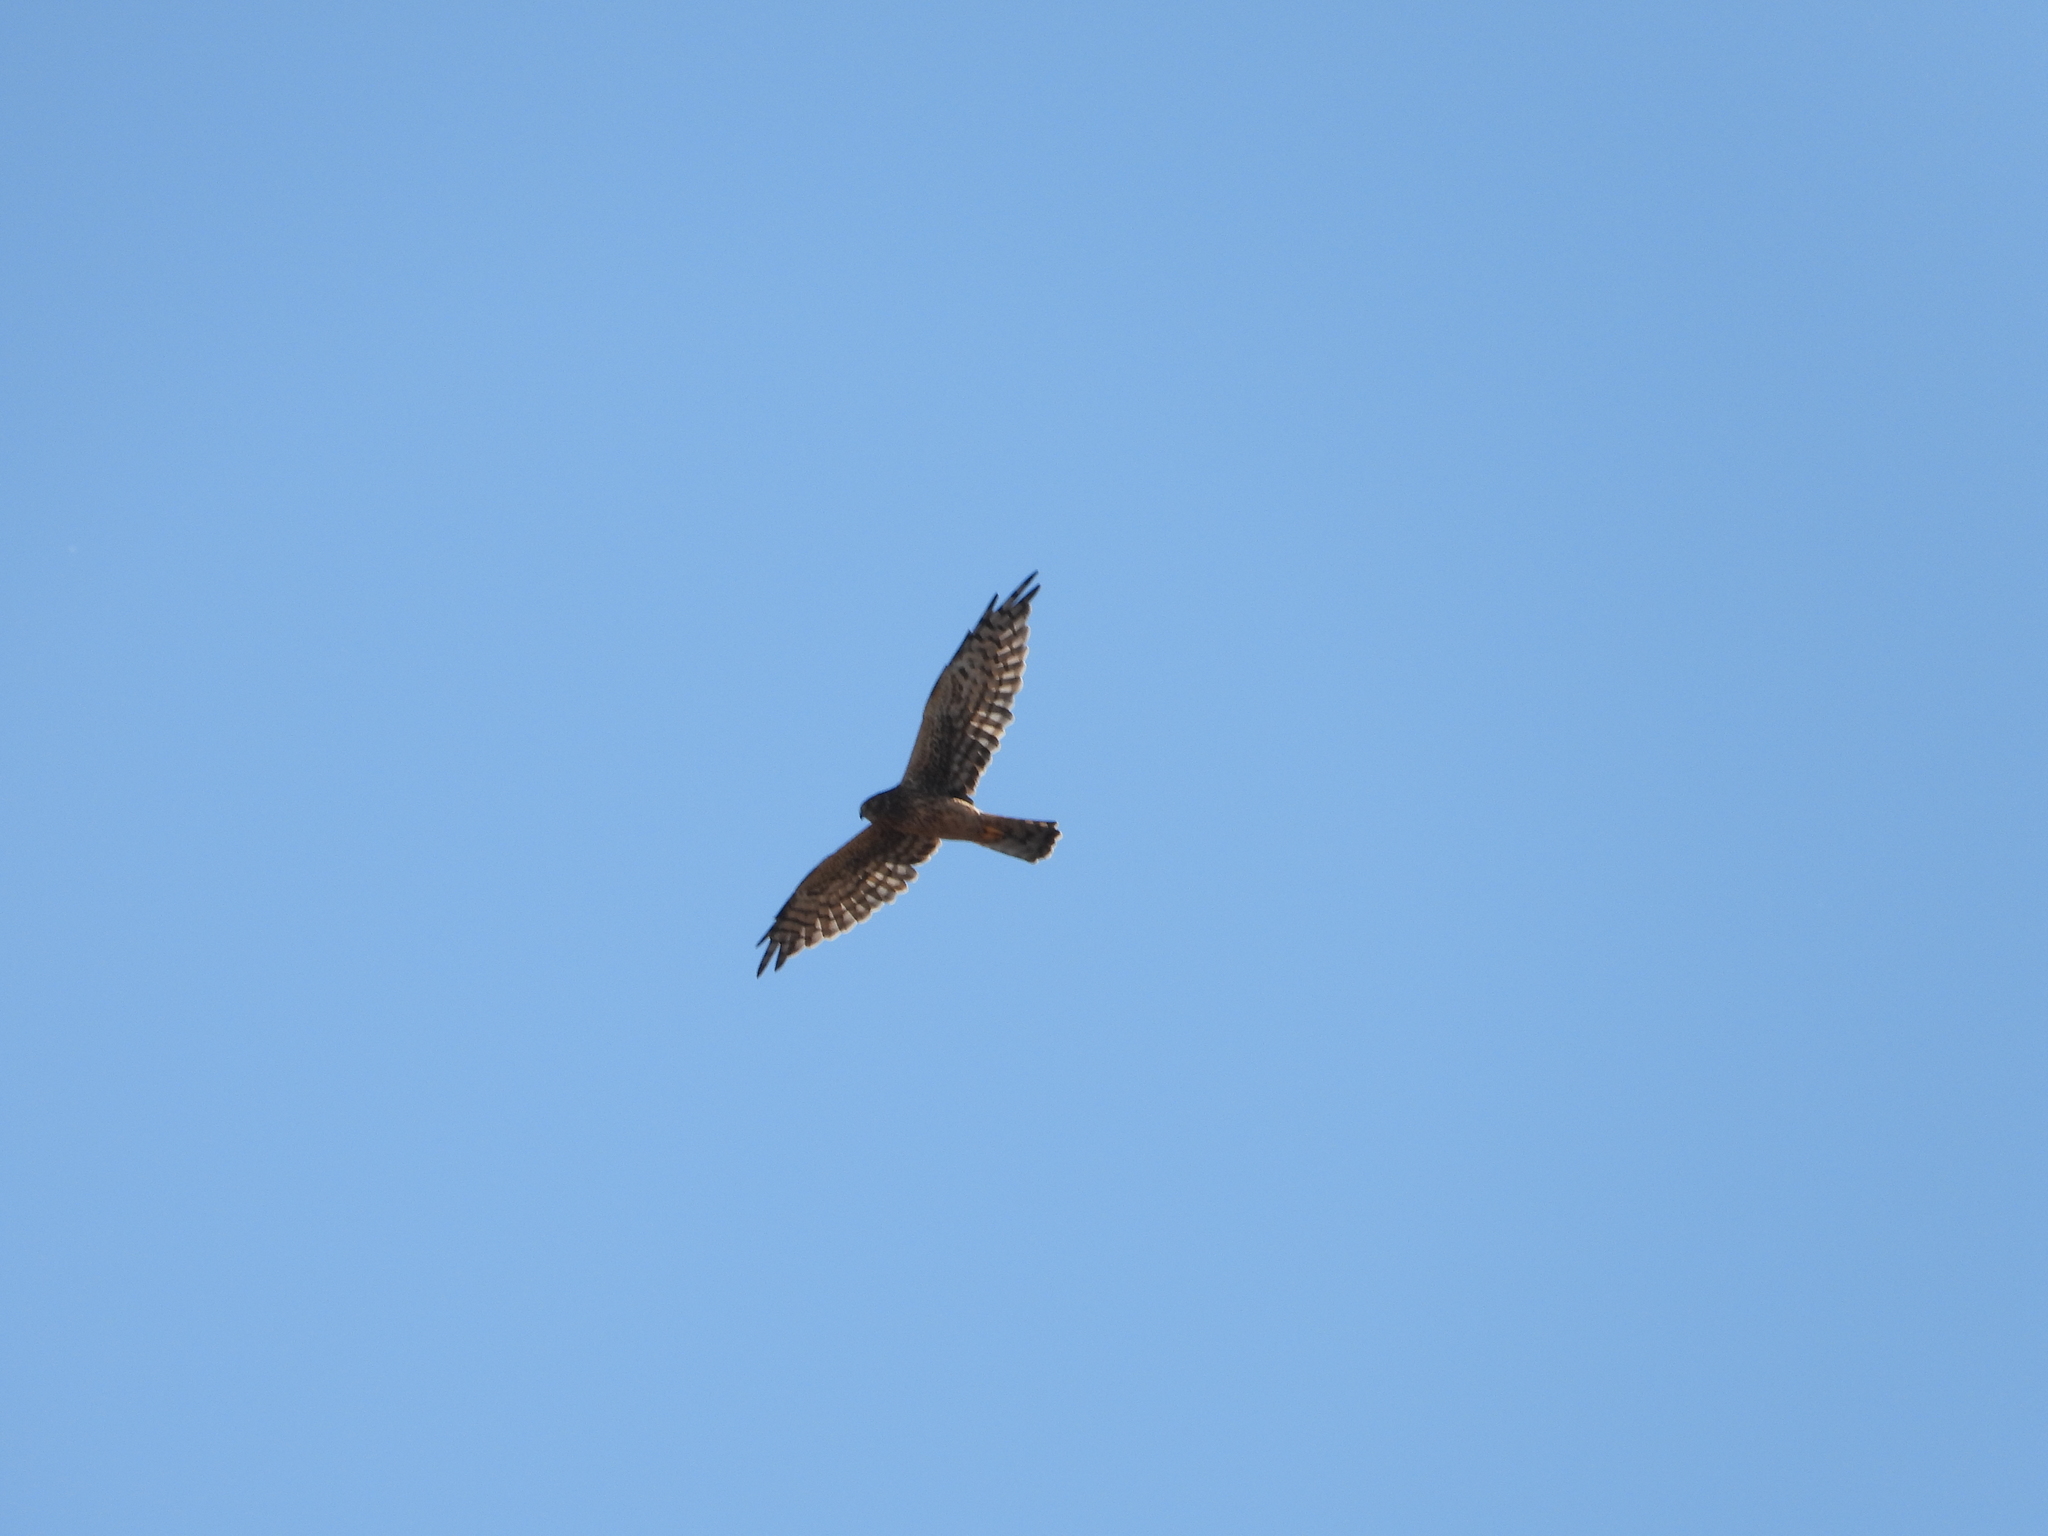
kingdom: Animalia
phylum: Chordata
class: Aves
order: Accipitriformes
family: Accipitridae
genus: Circus
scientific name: Circus cyaneus
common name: Hen harrier
